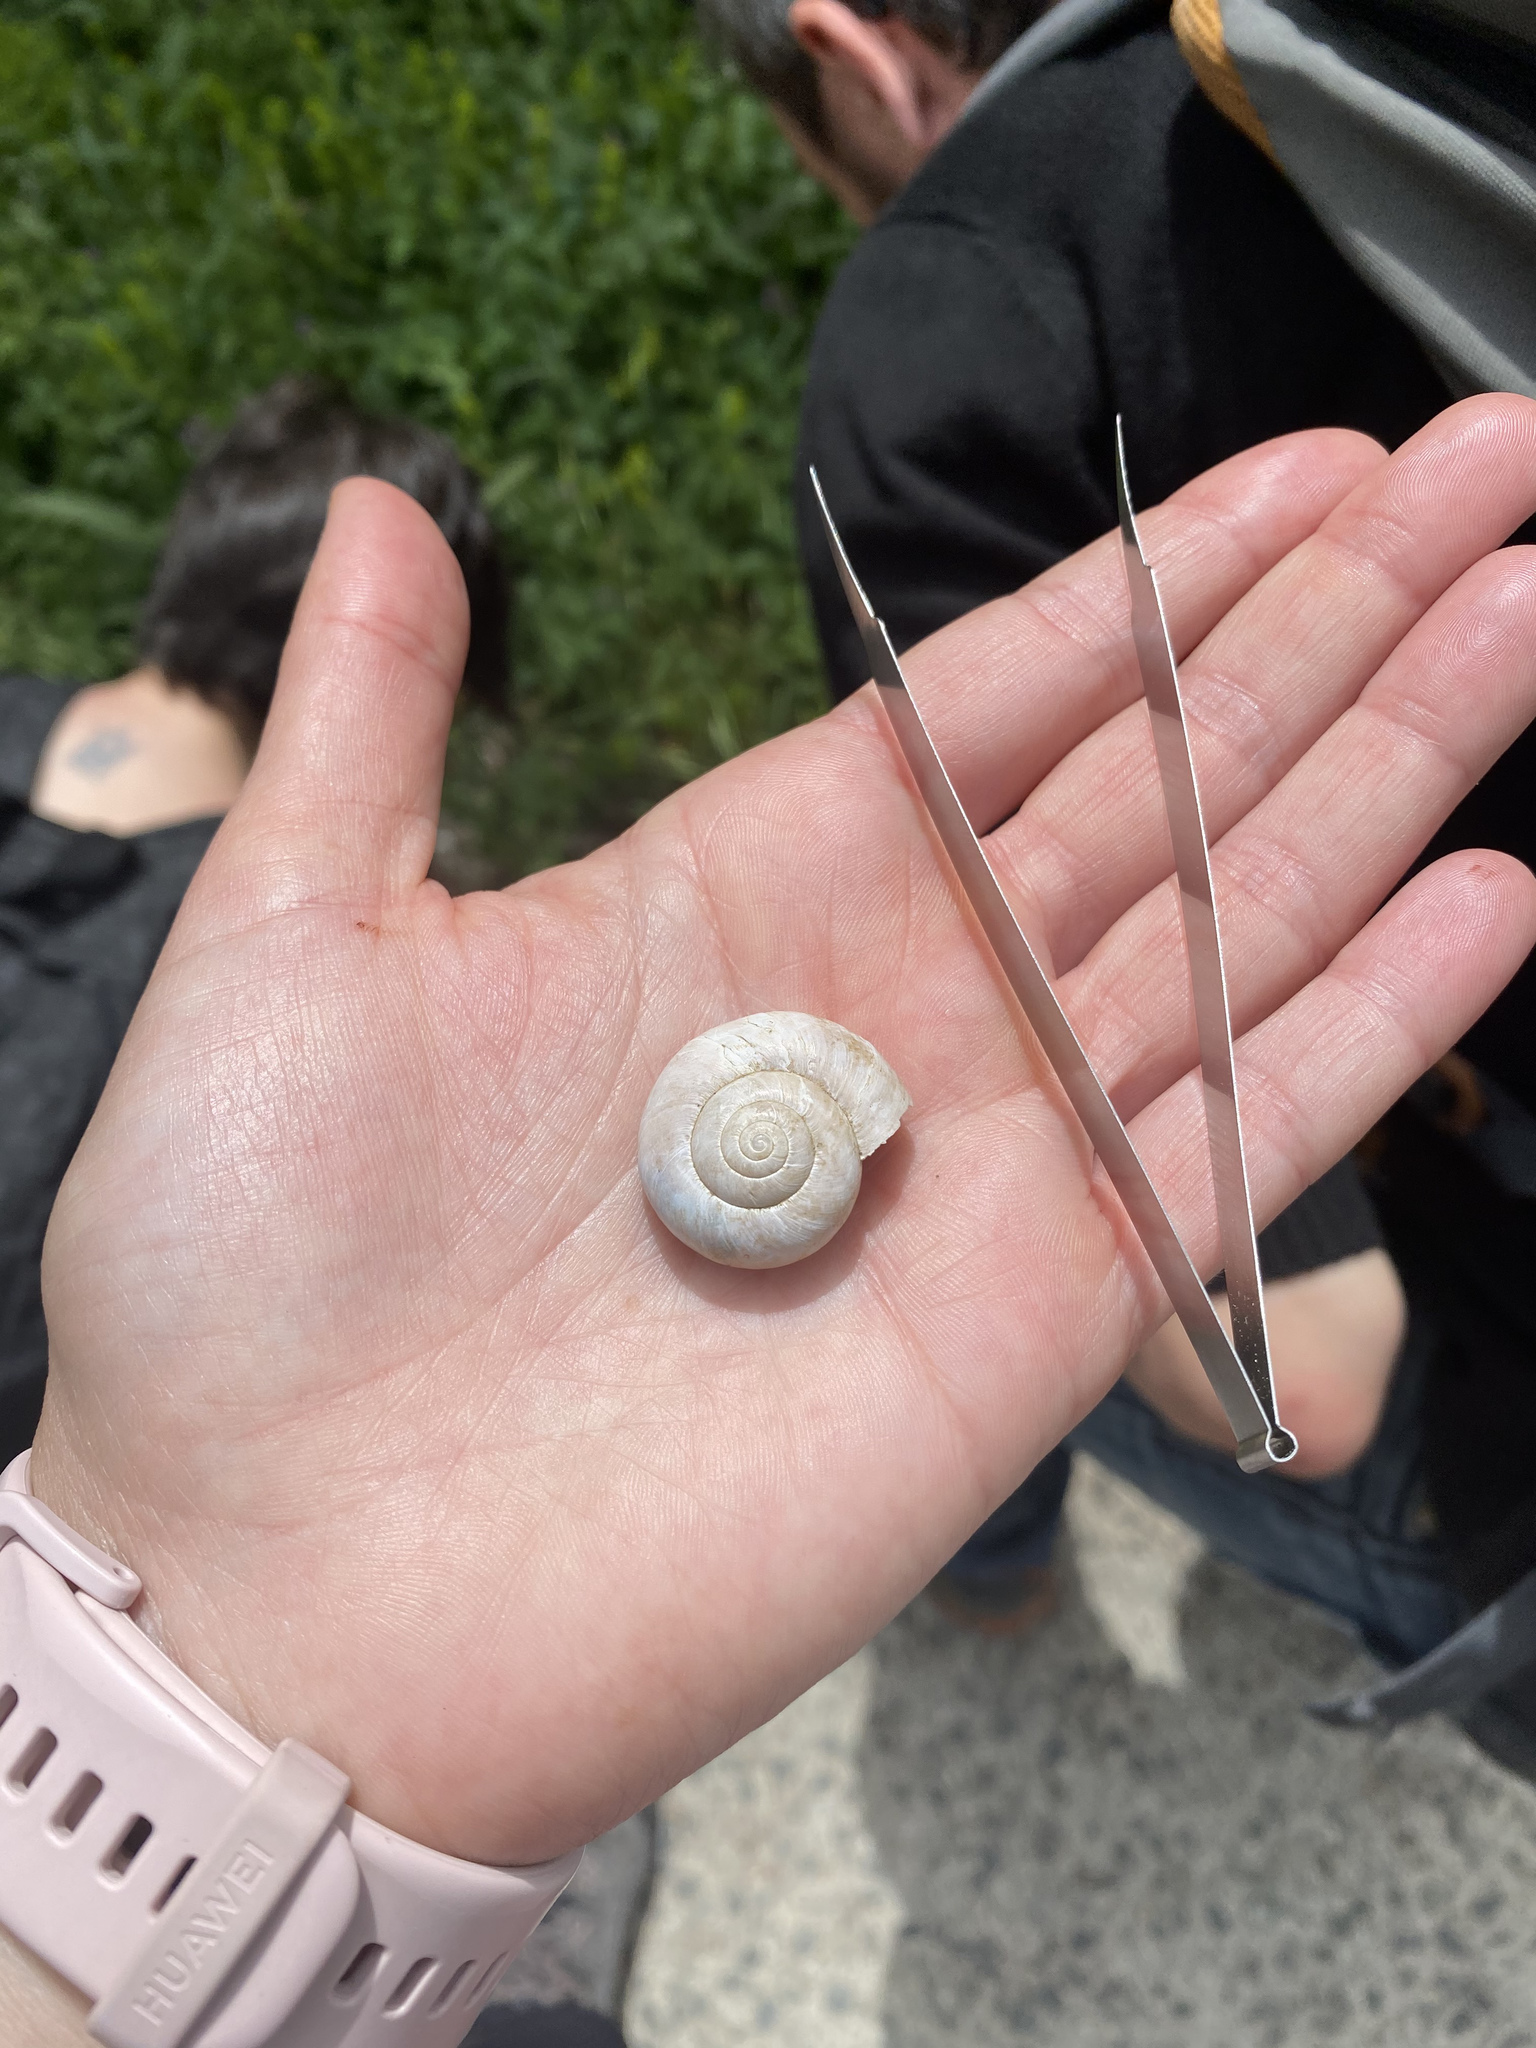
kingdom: Animalia
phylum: Mollusca
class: Gastropoda
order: Stylommatophora
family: Gastrodontidae
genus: Retinella
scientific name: Retinella olivetorum
